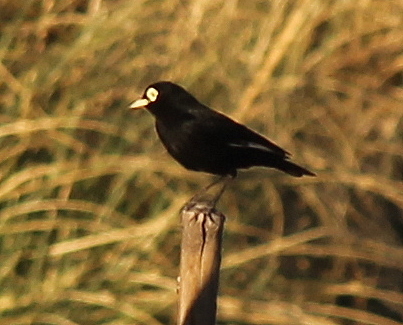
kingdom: Animalia
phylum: Chordata
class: Aves
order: Passeriformes
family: Tyrannidae
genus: Hymenops
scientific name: Hymenops perspicillatus
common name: Spectacled tyrant
